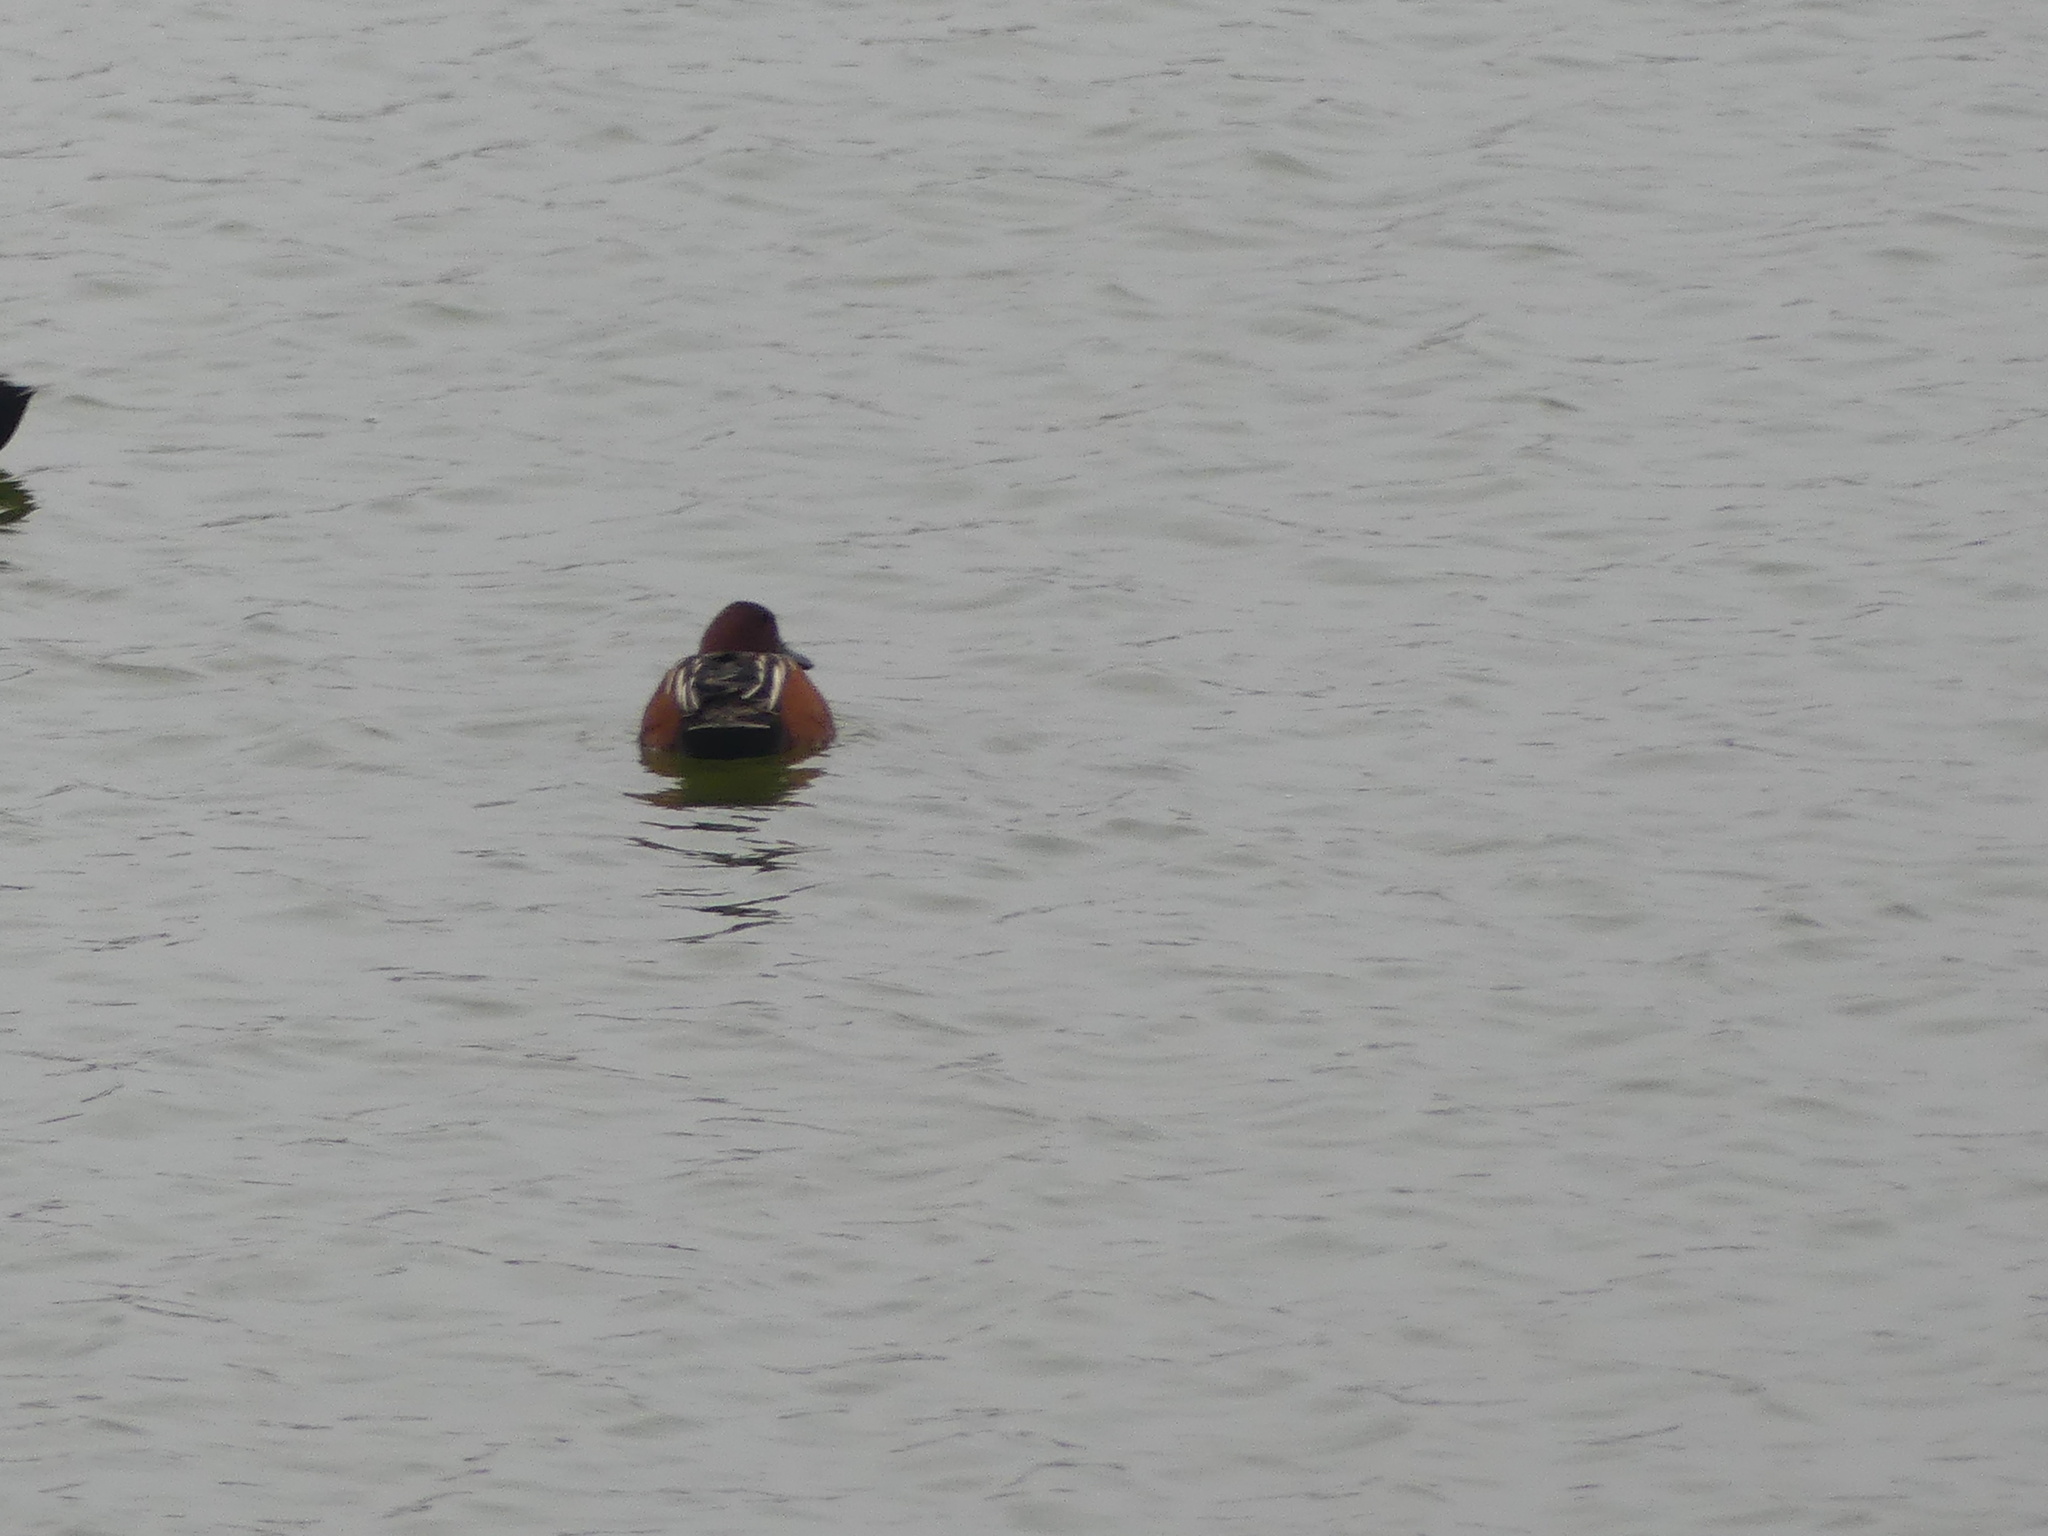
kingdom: Animalia
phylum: Chordata
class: Aves
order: Anseriformes
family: Anatidae
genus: Spatula
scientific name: Spatula cyanoptera
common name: Cinnamon teal
